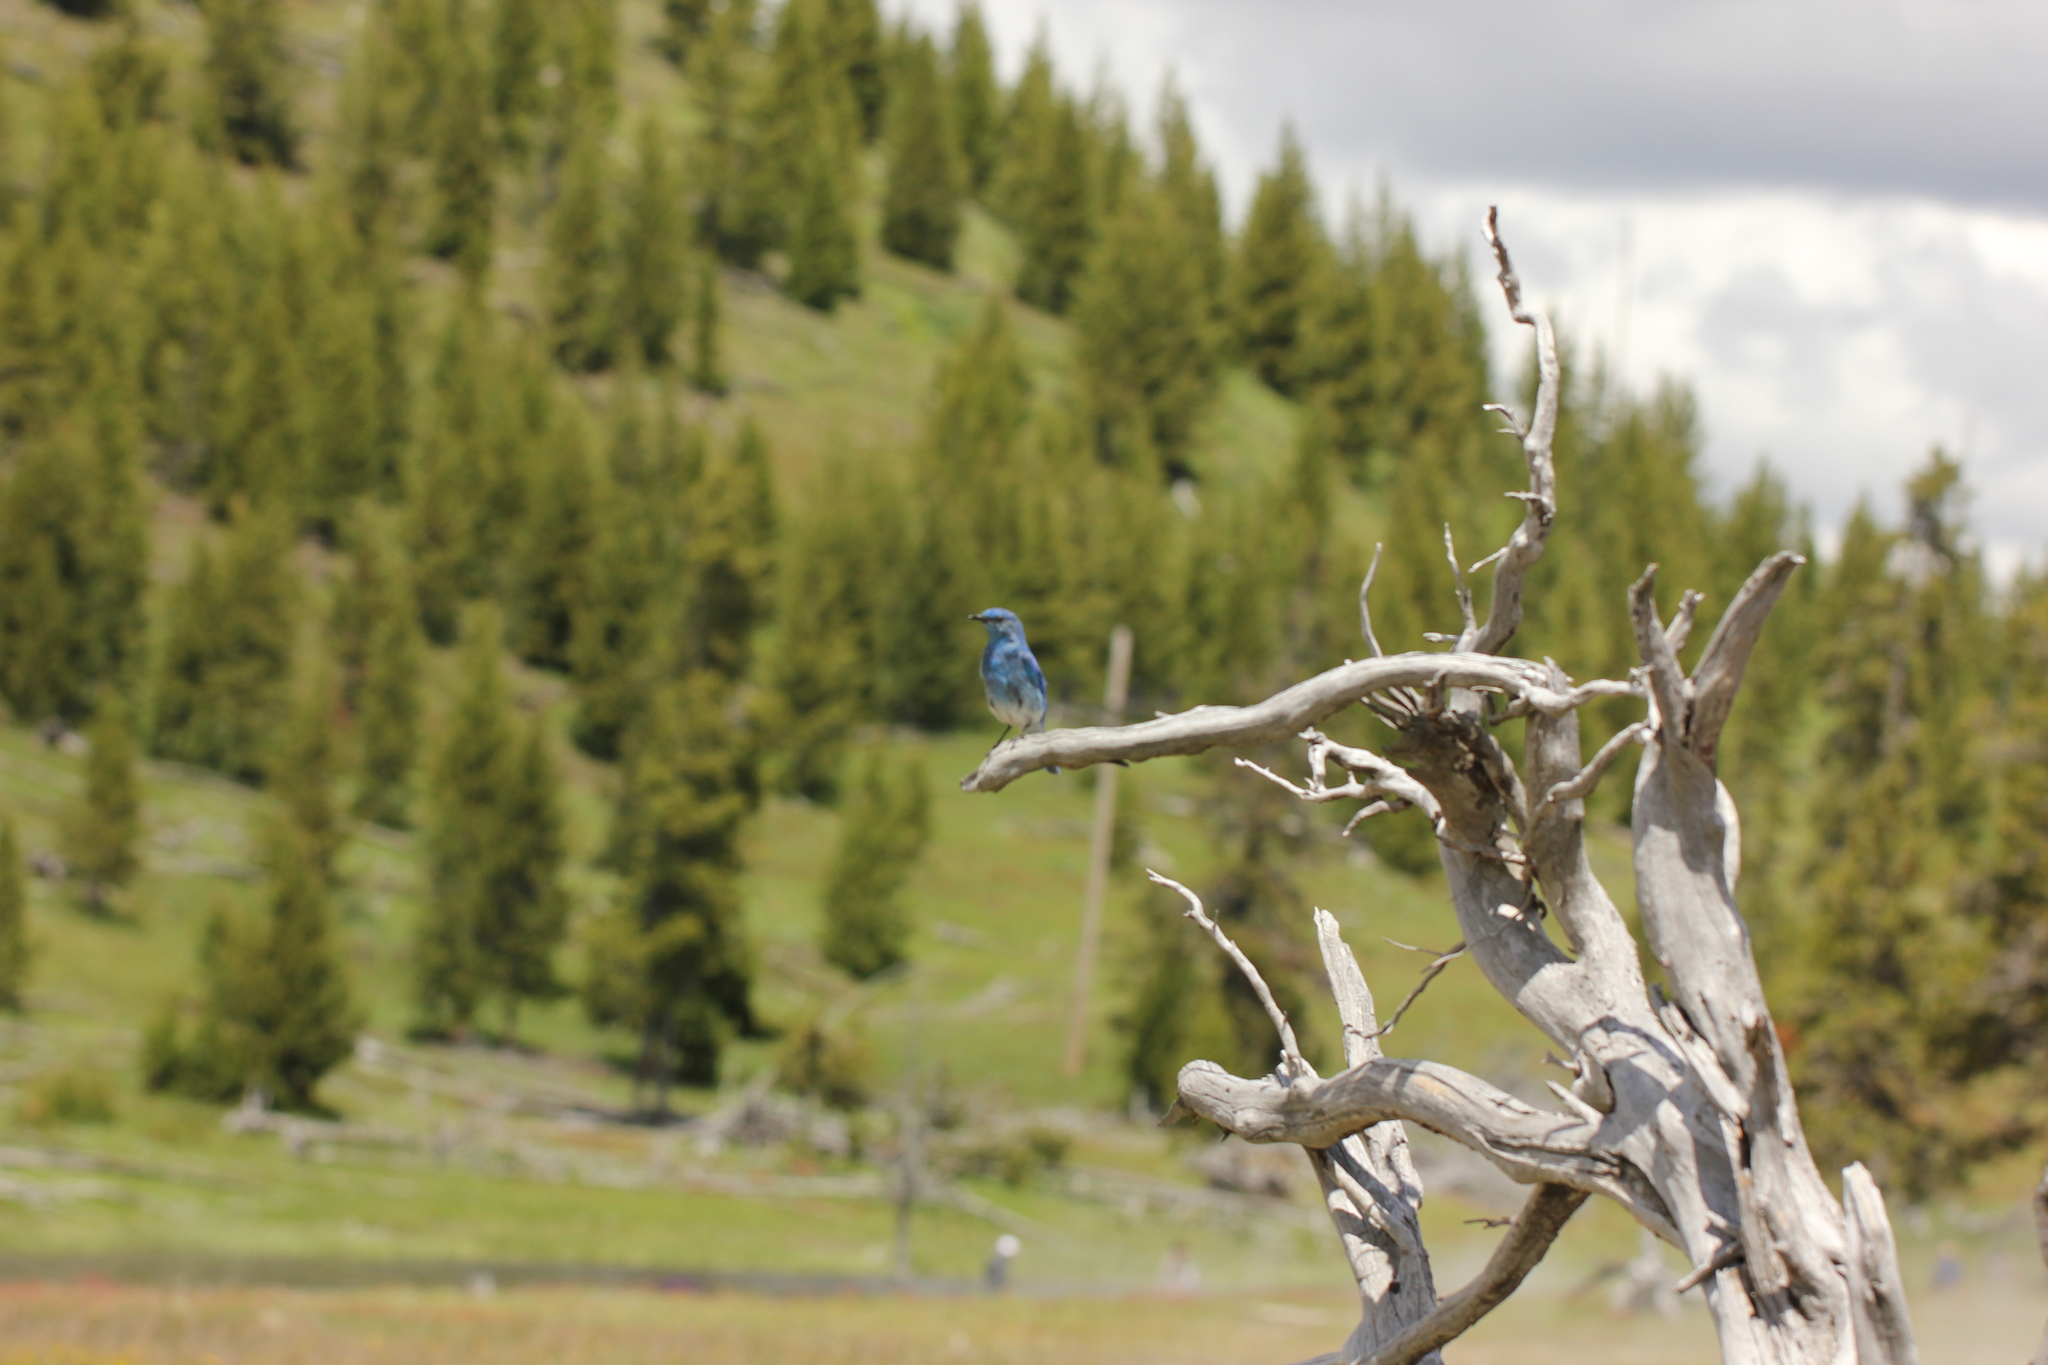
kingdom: Animalia
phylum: Chordata
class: Aves
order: Passeriformes
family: Turdidae
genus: Sialia
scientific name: Sialia currucoides
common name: Mountain bluebird
